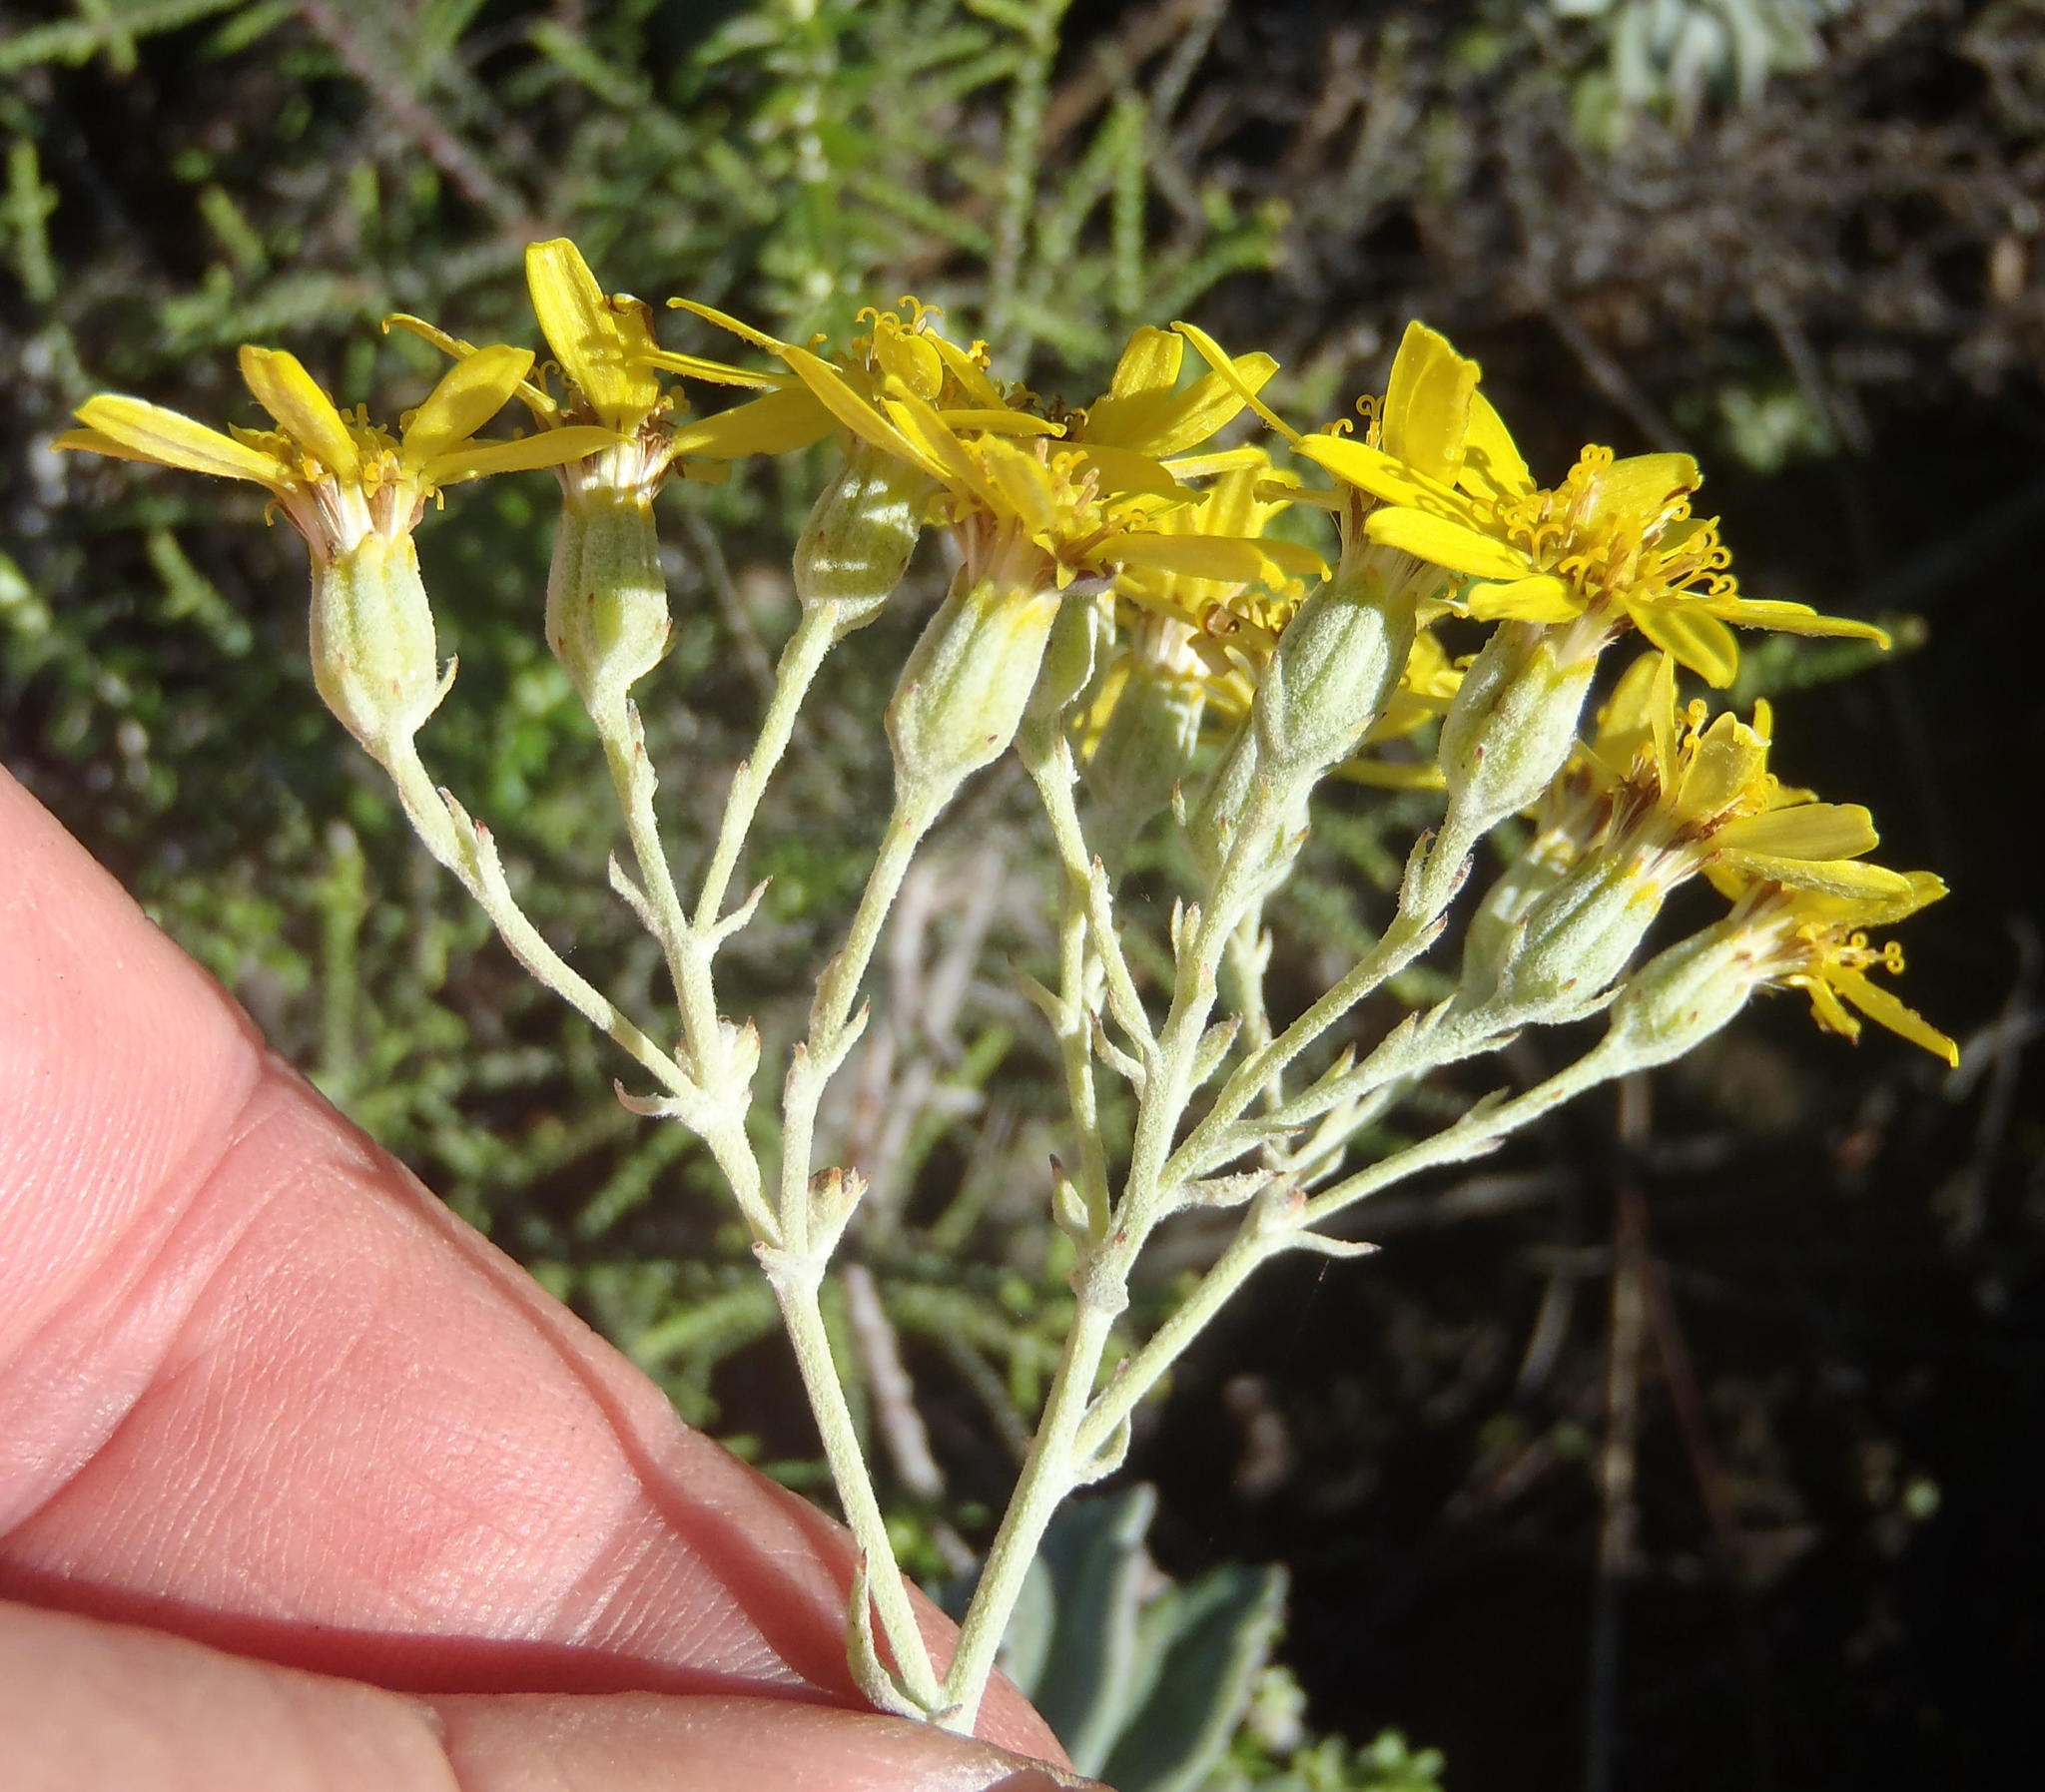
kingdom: Plantae
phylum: Tracheophyta
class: Magnoliopsida
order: Asterales
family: Asteraceae
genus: Senecio
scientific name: Senecio lineatus
